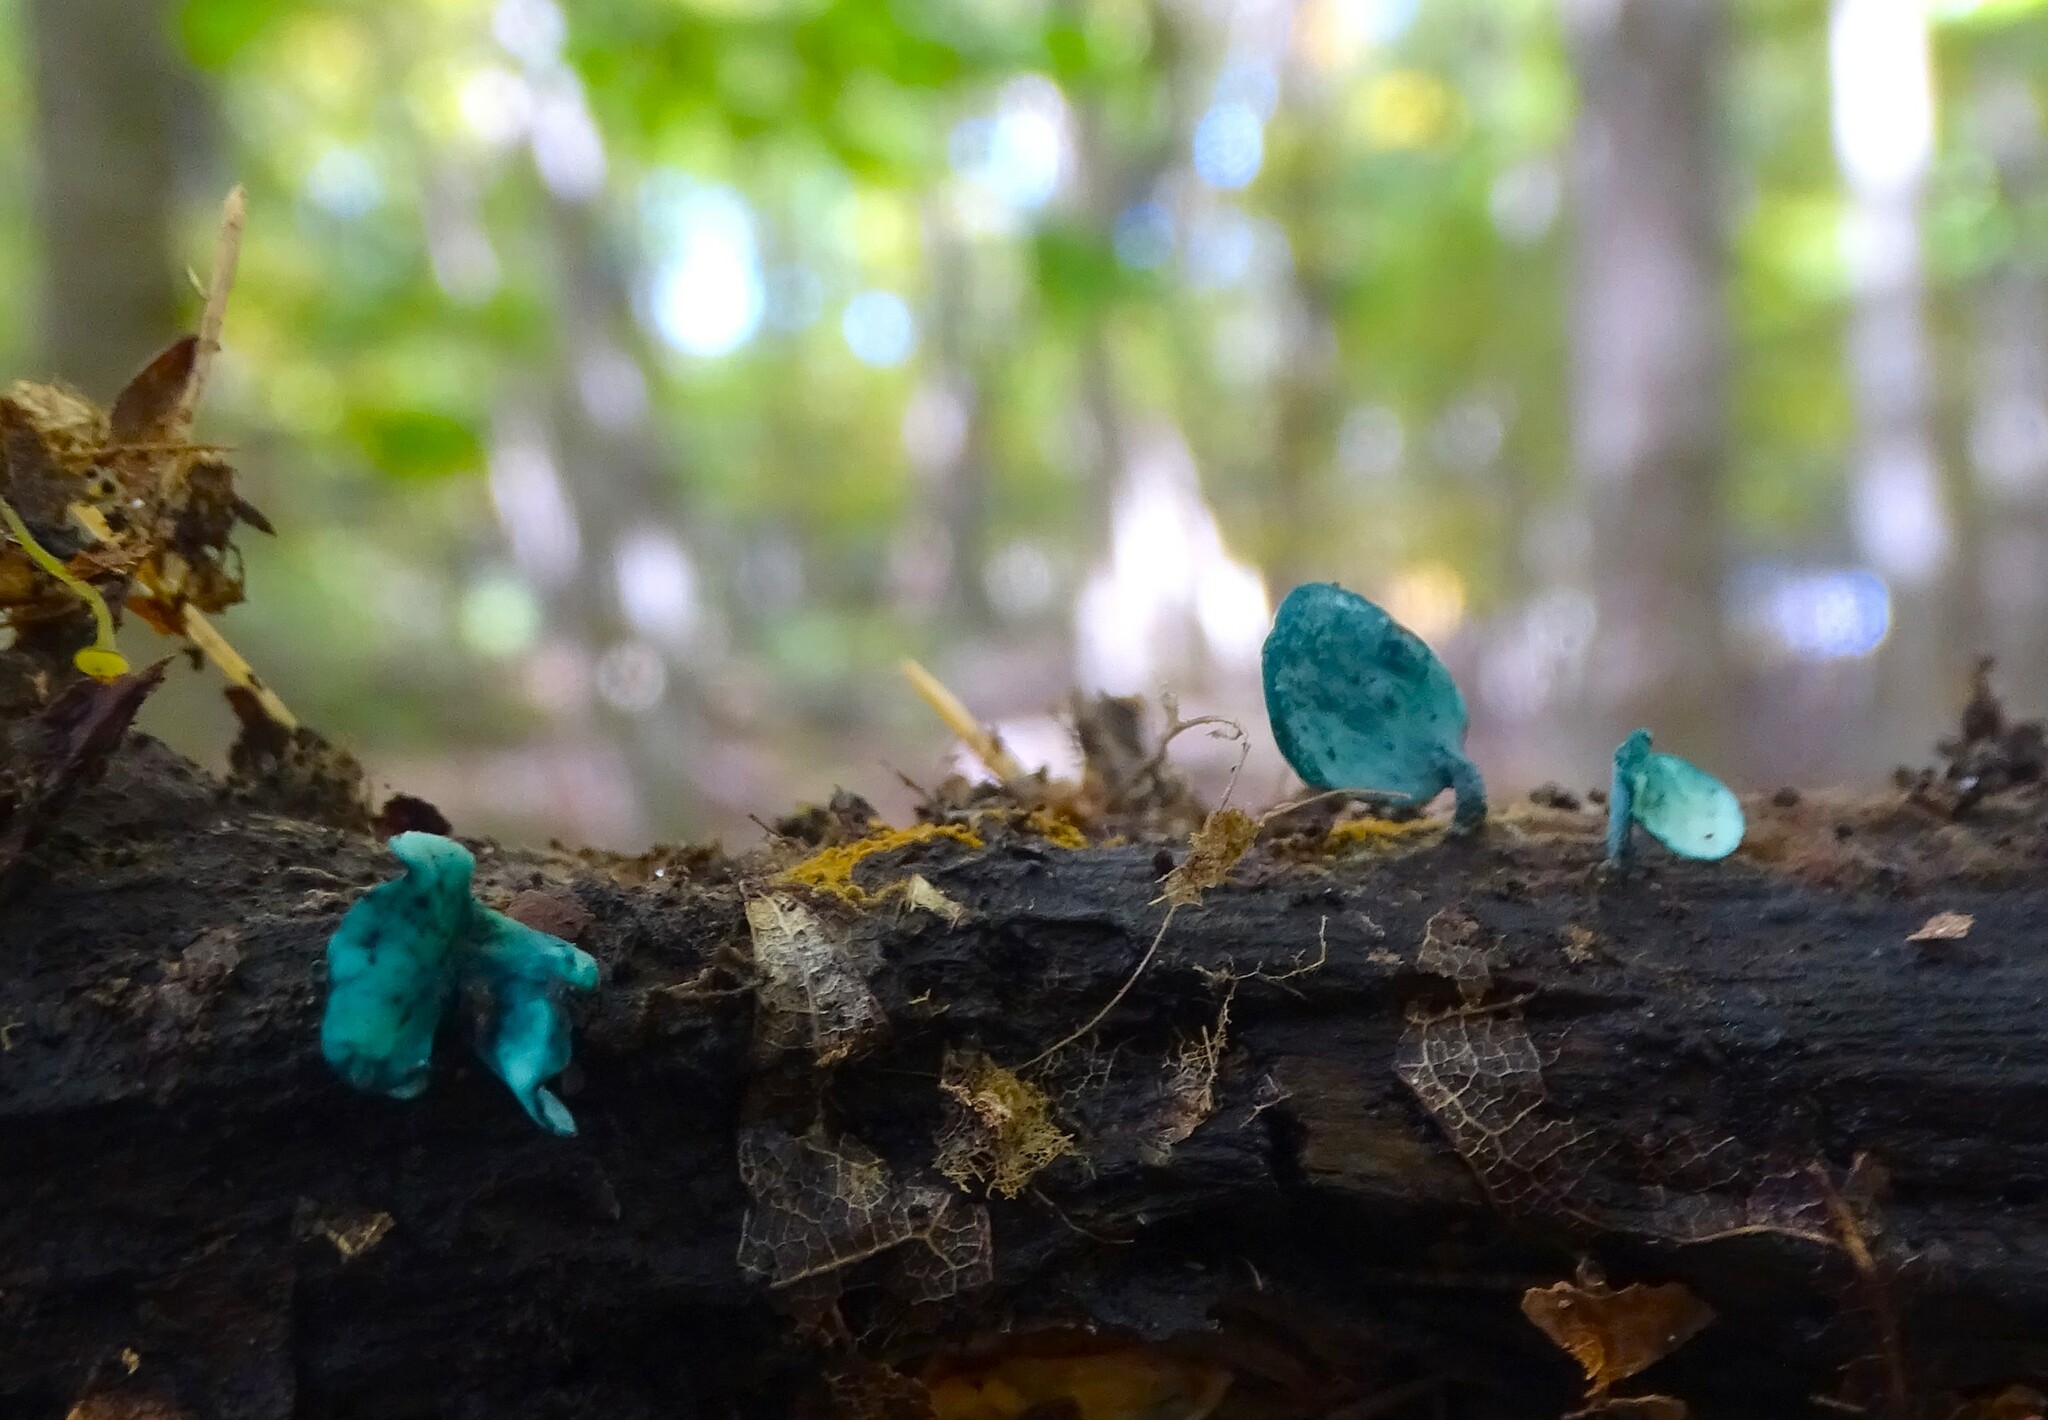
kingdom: Fungi
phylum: Ascomycota
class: Leotiomycetes
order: Helotiales
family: Chlorociboriaceae
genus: Chlorociboria
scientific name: Chlorociboria aeruginascens
